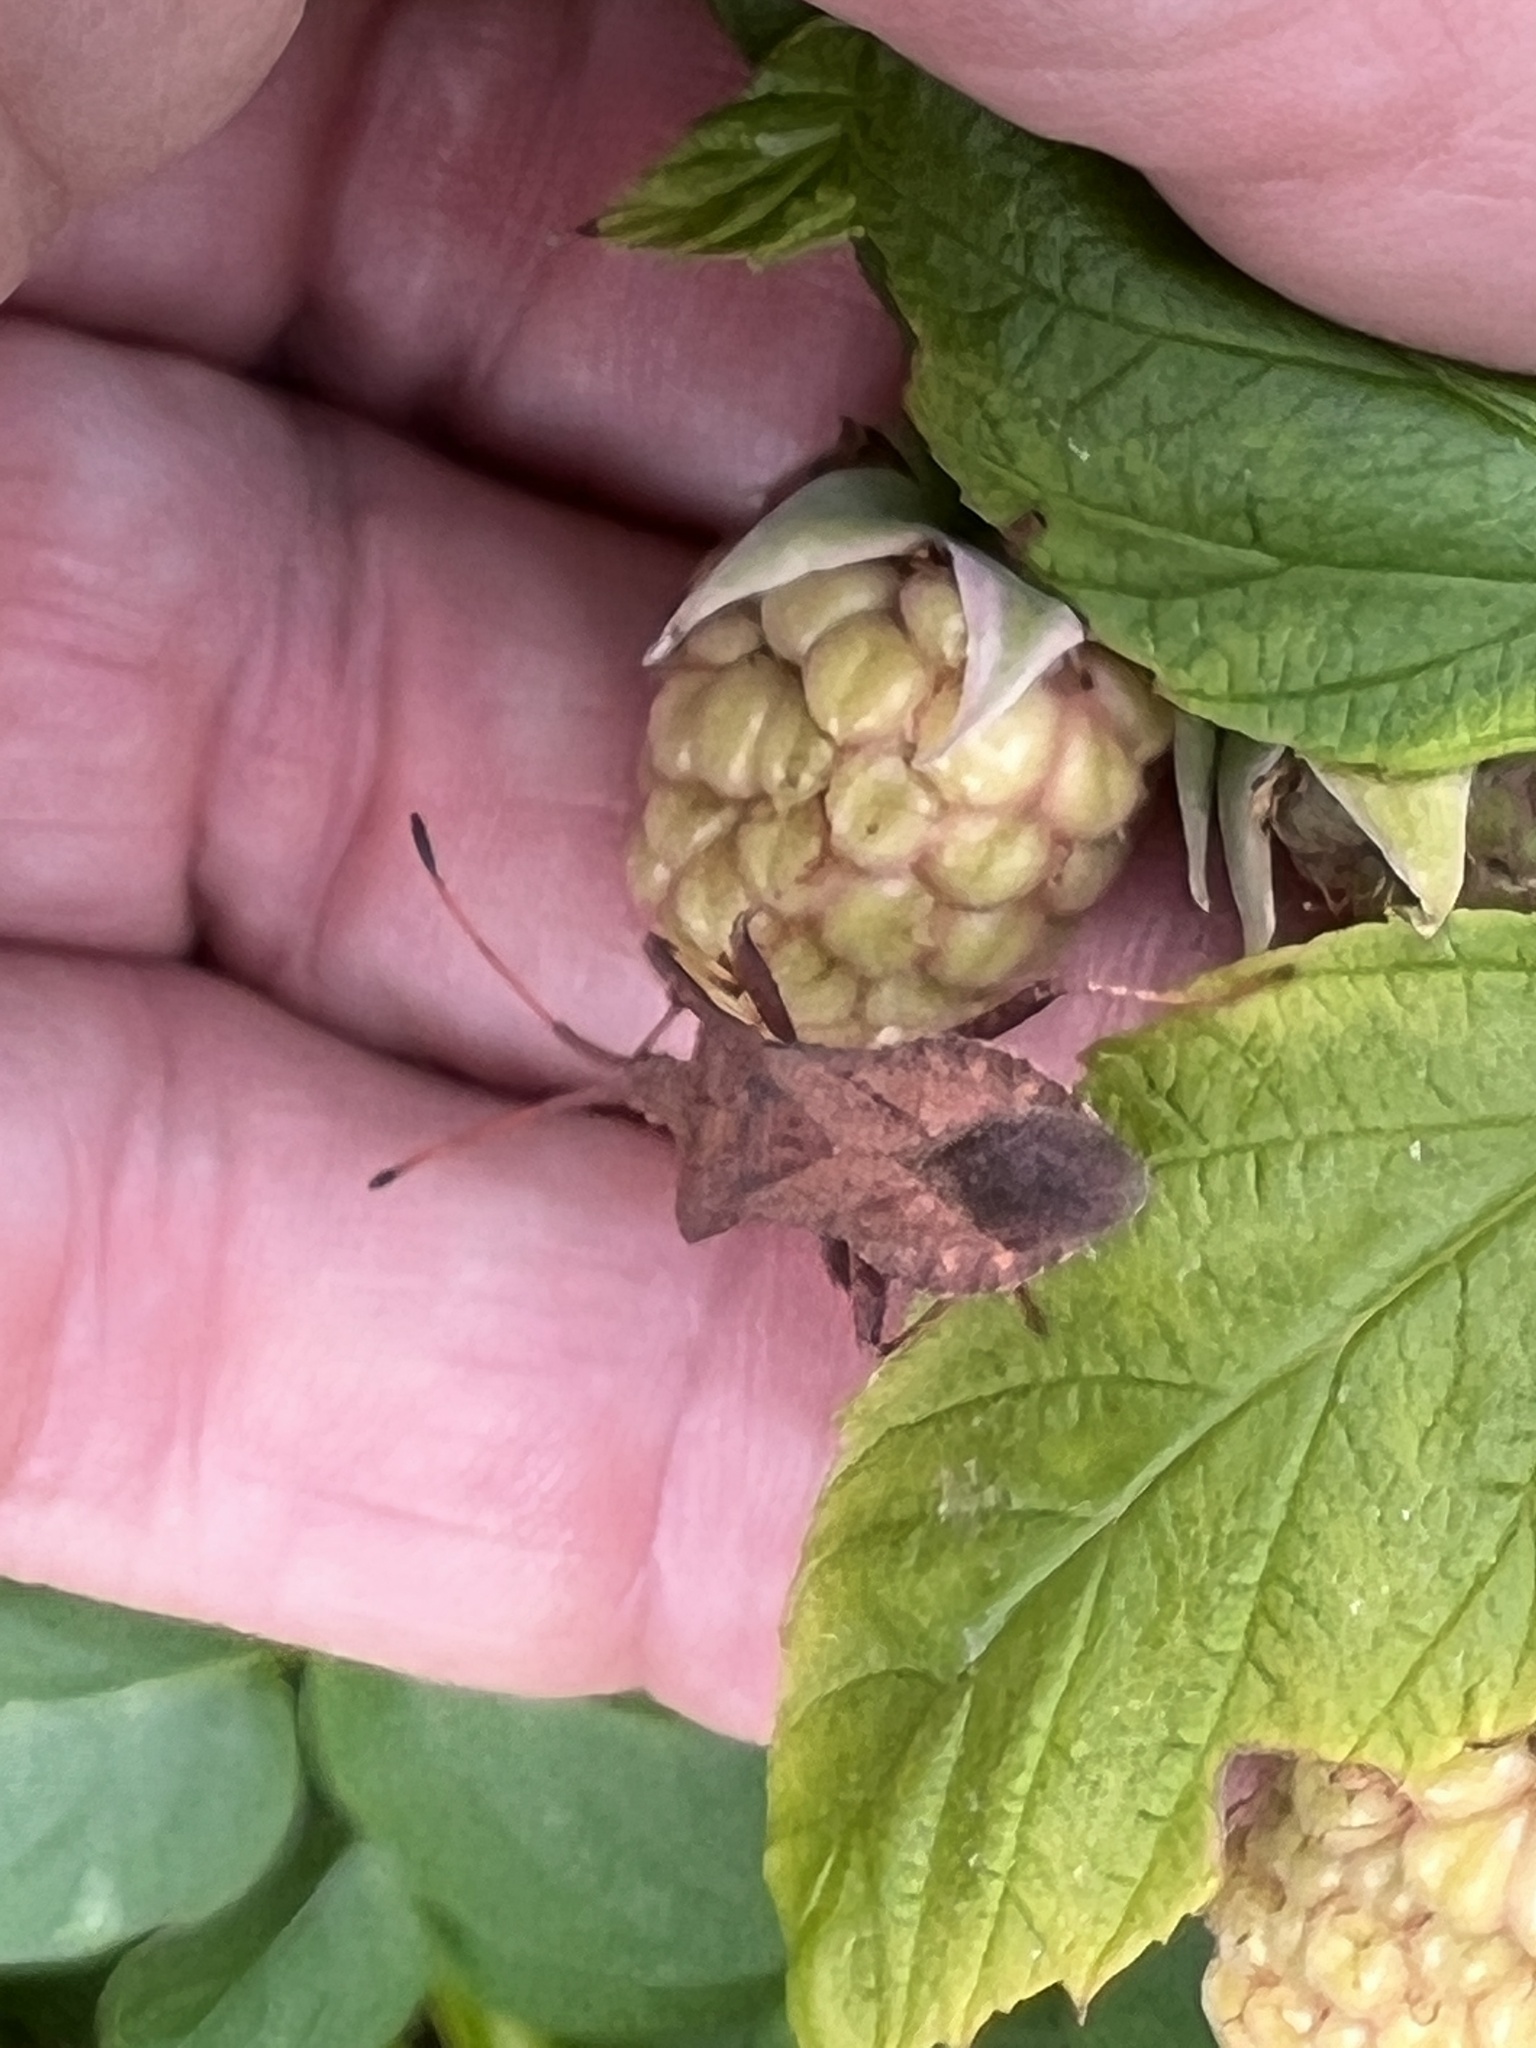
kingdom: Animalia
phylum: Arthropoda
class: Insecta
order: Hemiptera
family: Coreidae
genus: Coreus
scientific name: Coreus marginatus
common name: Dock bug
